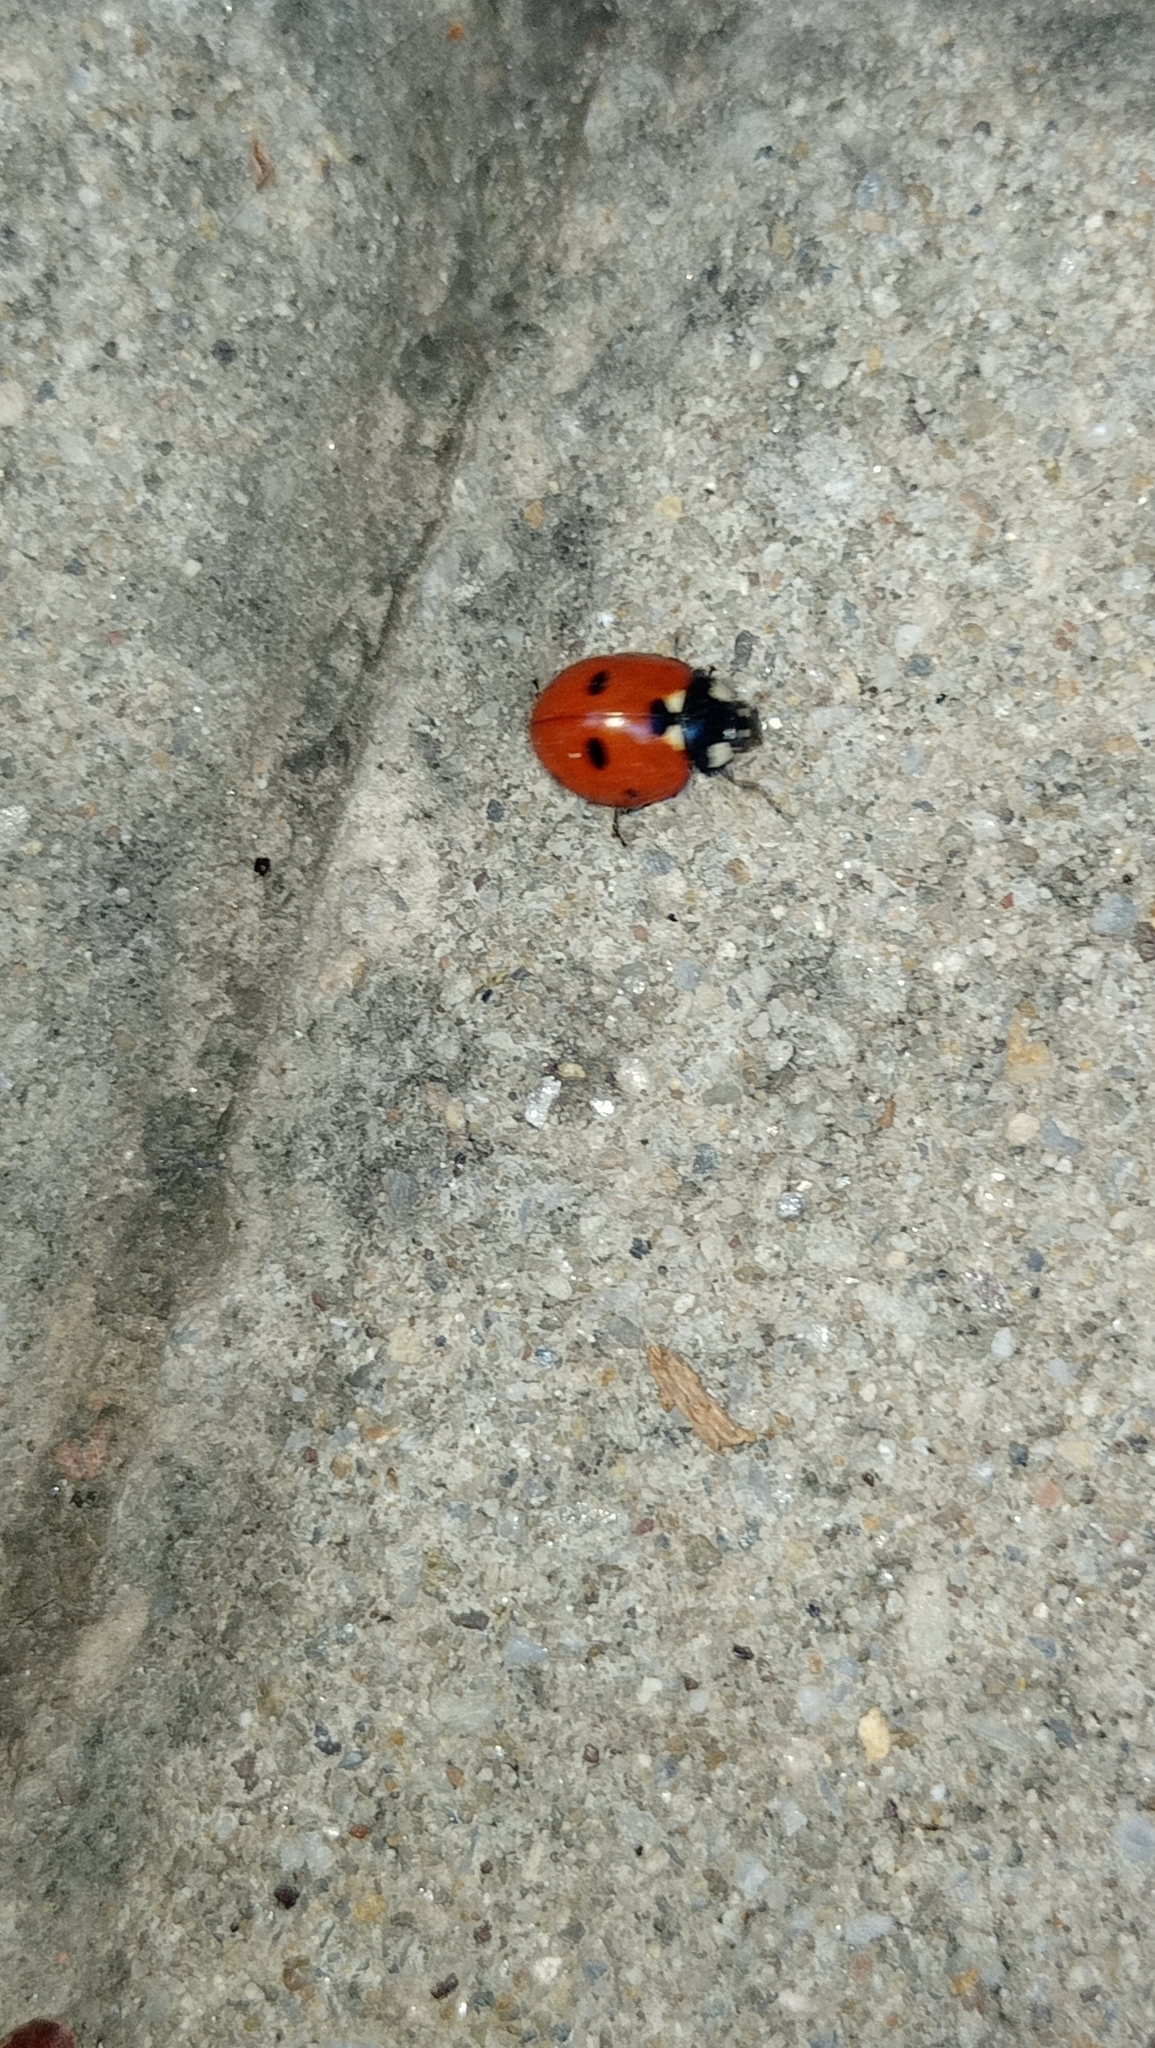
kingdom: Animalia
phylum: Arthropoda
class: Insecta
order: Coleoptera
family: Coccinellidae
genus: Coccinella
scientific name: Coccinella septempunctata
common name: Sevenspotted lady beetle
